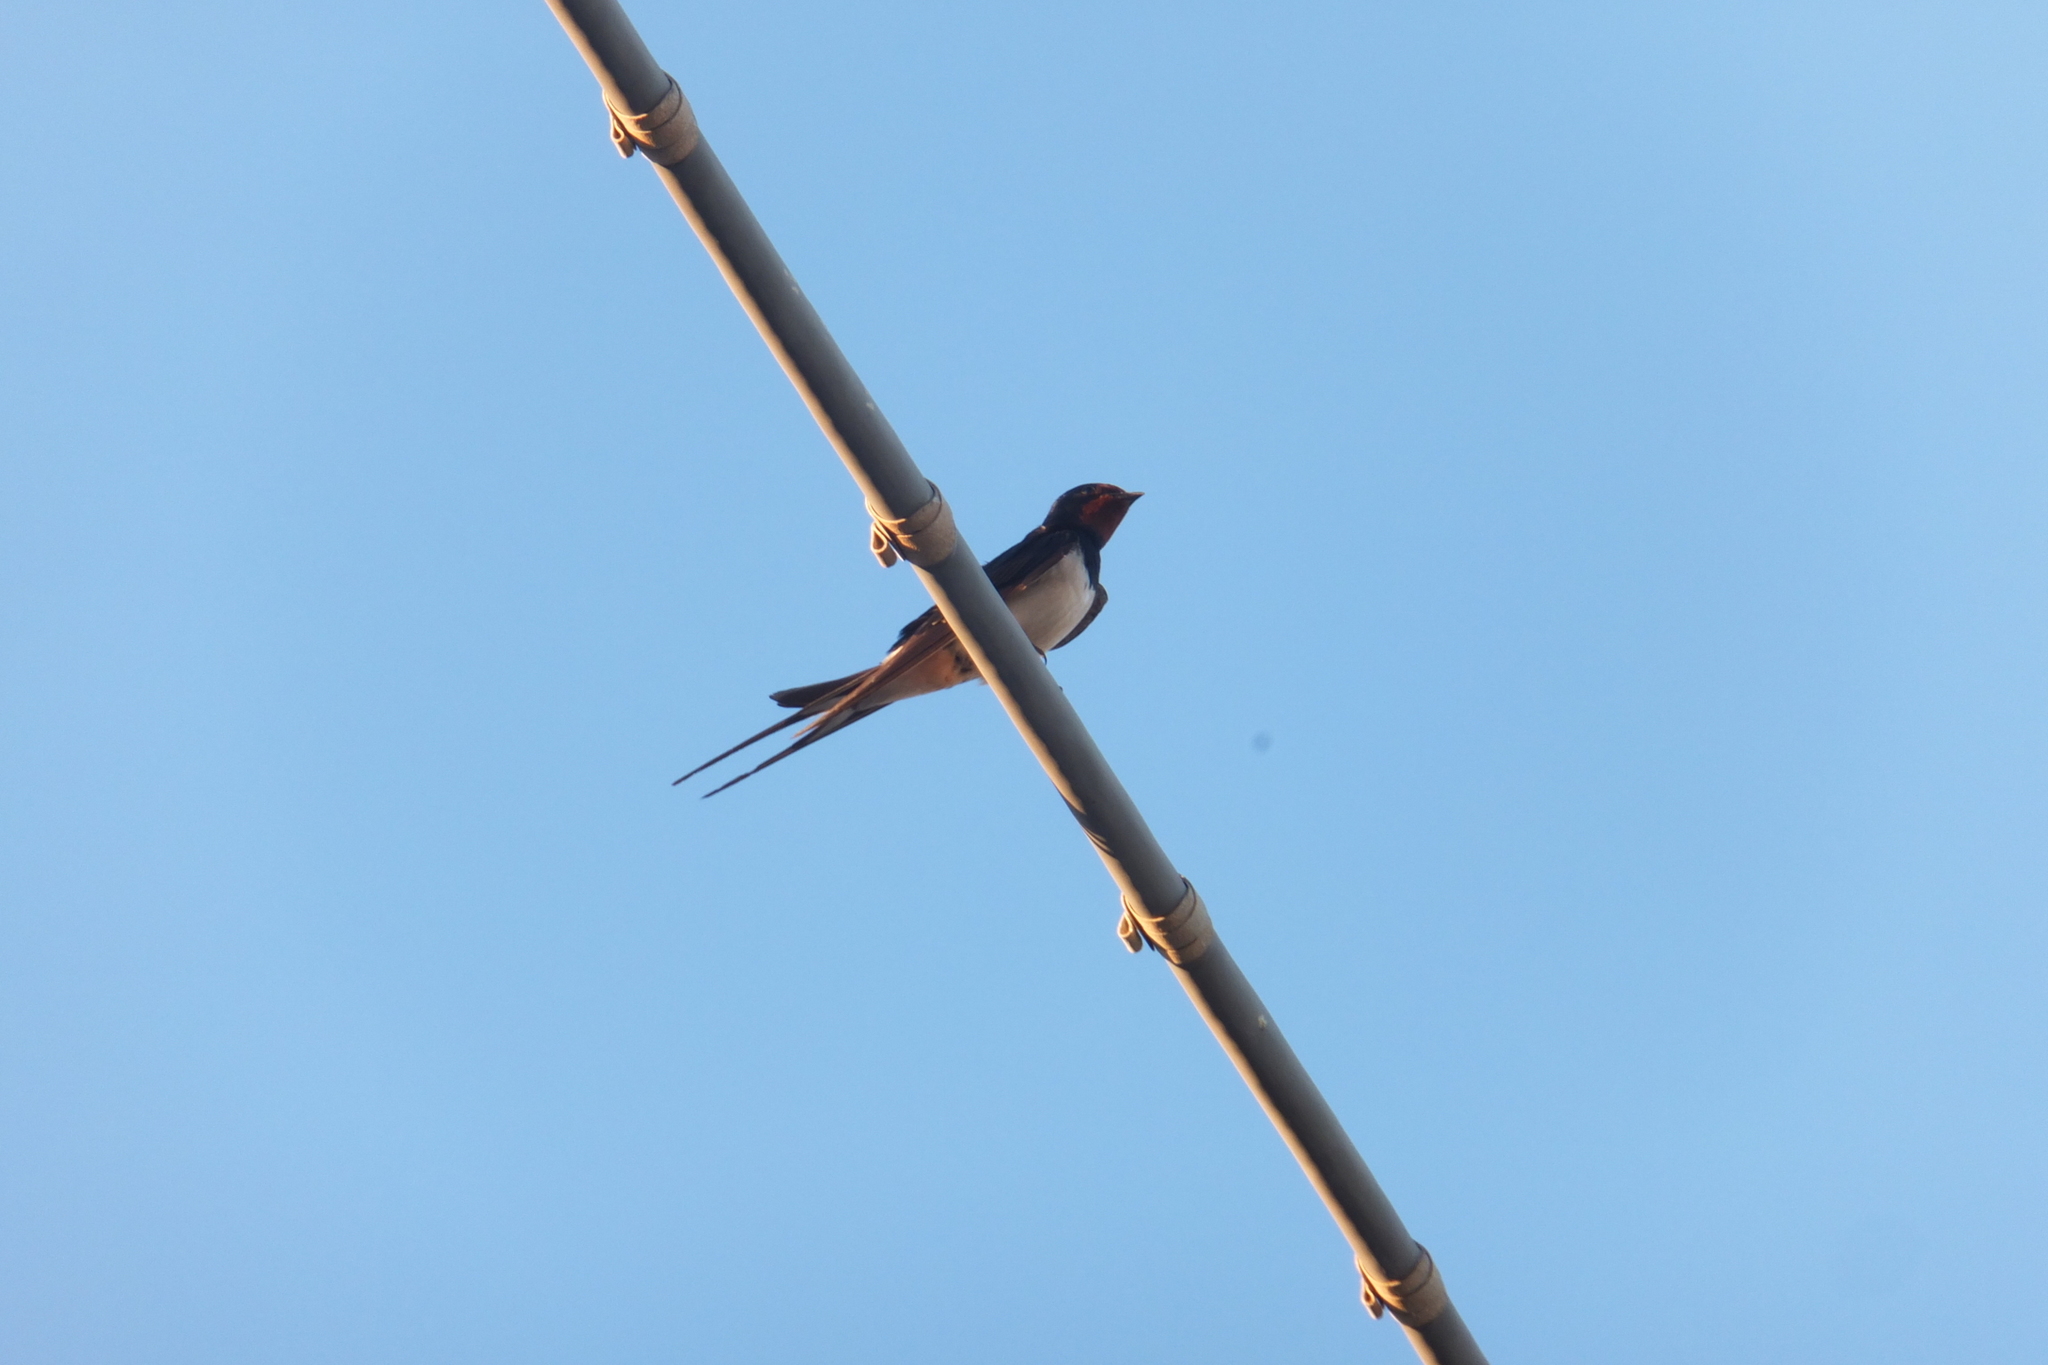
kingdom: Animalia
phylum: Chordata
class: Aves
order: Passeriformes
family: Hirundinidae
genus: Hirundo
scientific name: Hirundo rustica
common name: Barn swallow
